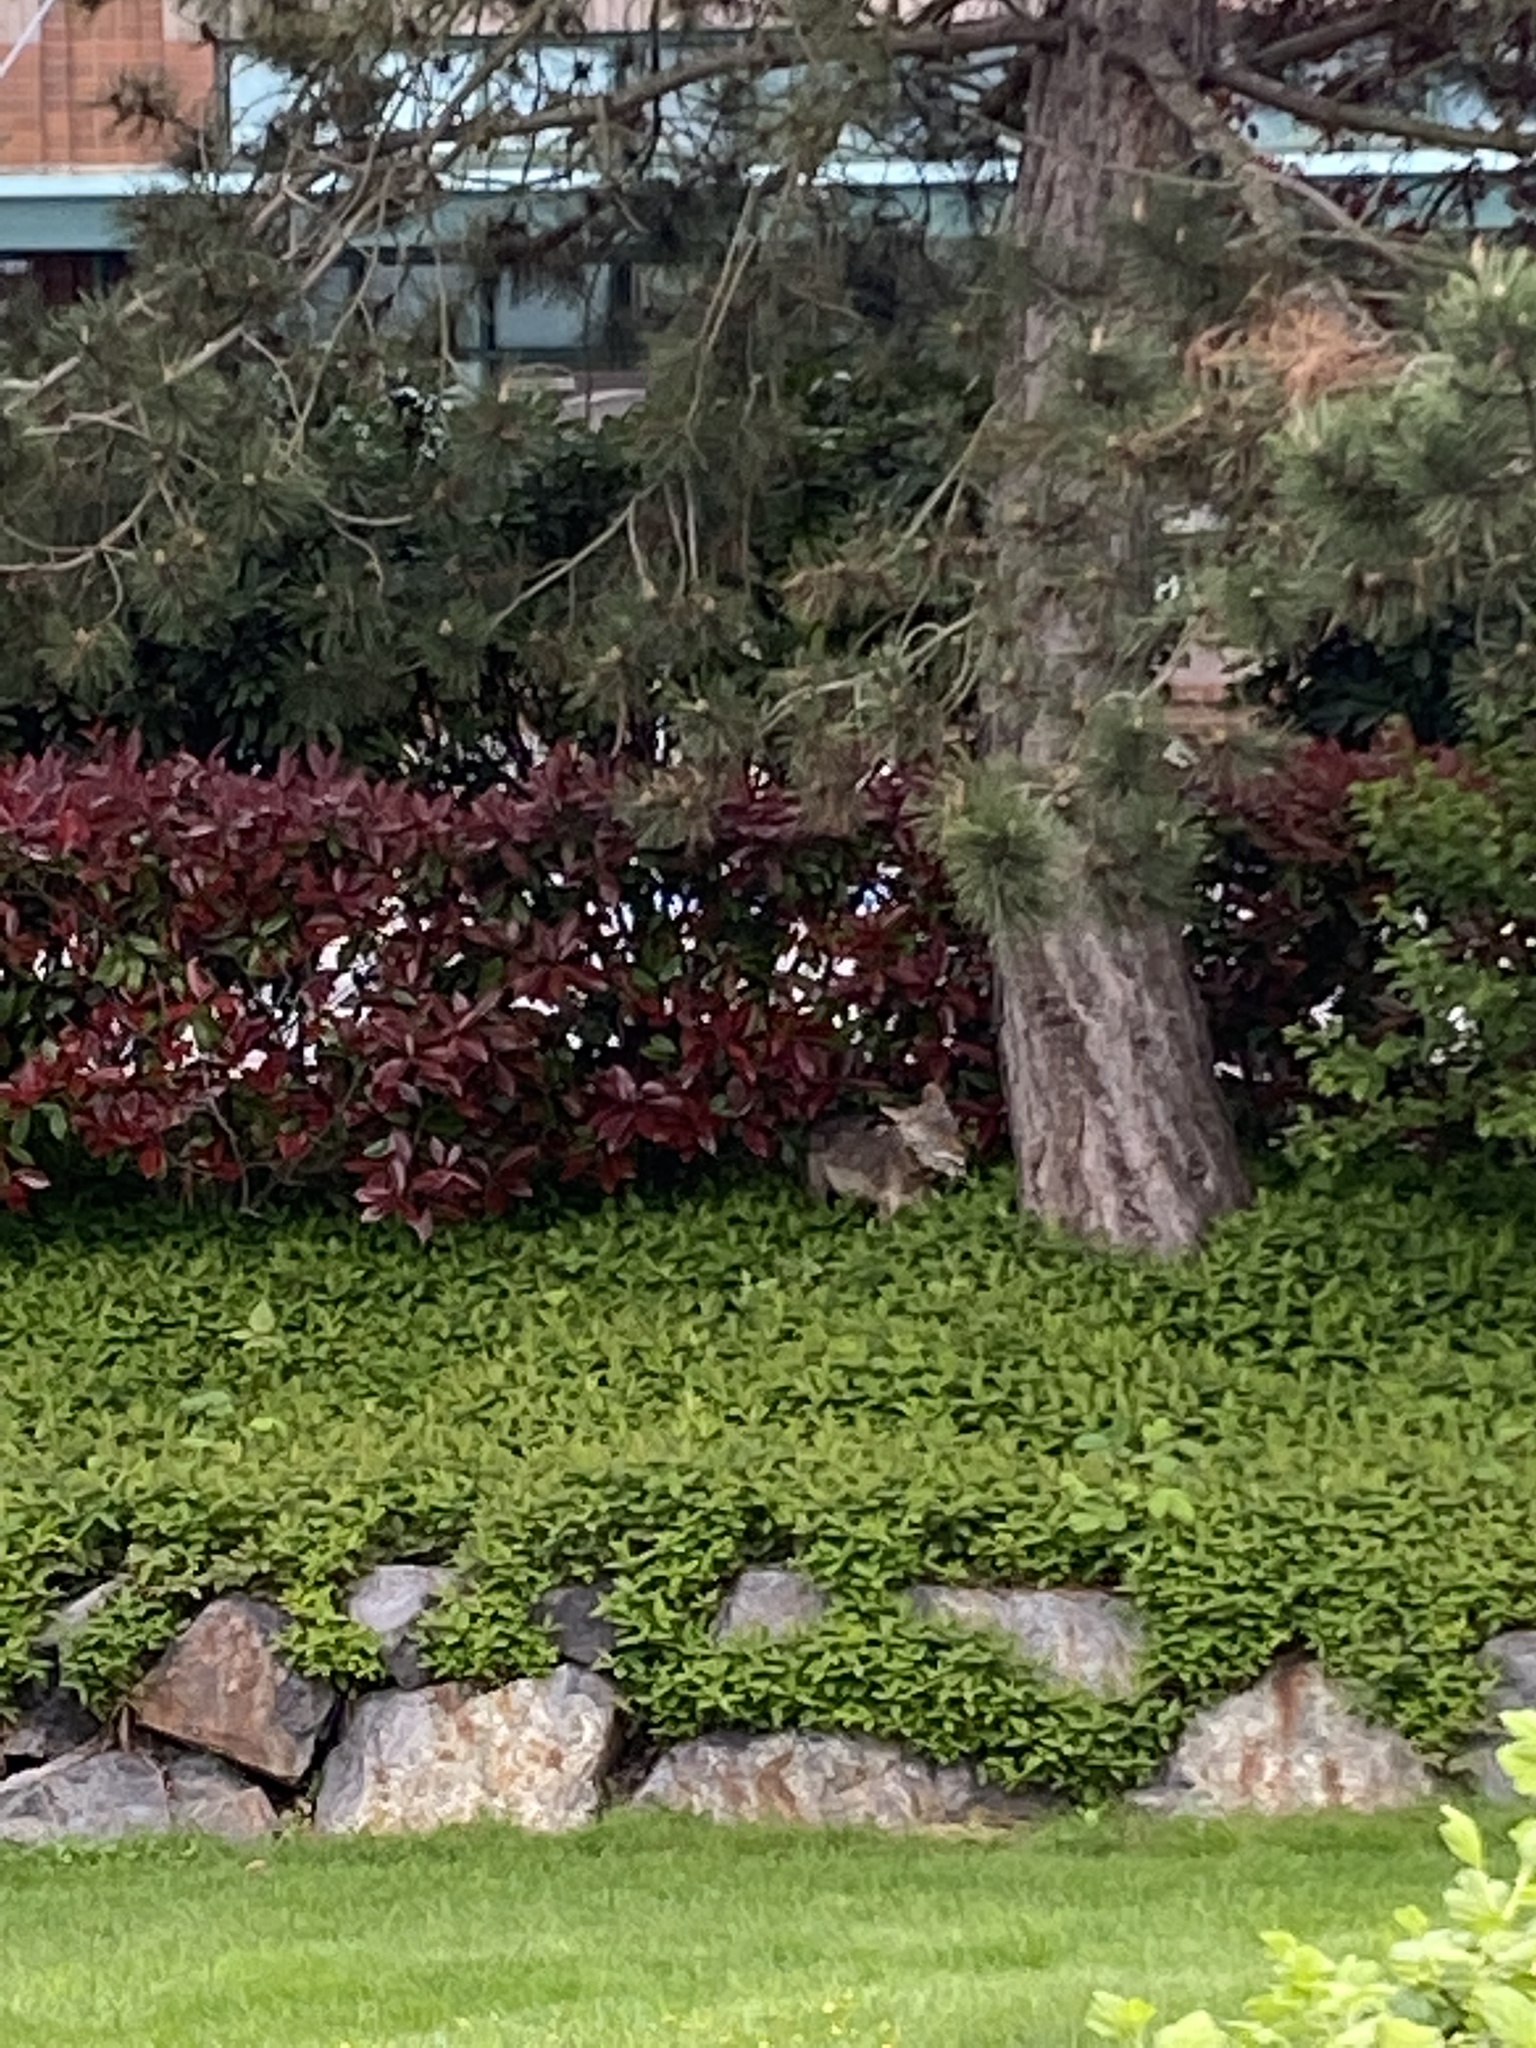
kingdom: Animalia
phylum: Chordata
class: Mammalia
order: Carnivora
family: Canidae
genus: Canis
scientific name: Canis latrans
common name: Coyote
